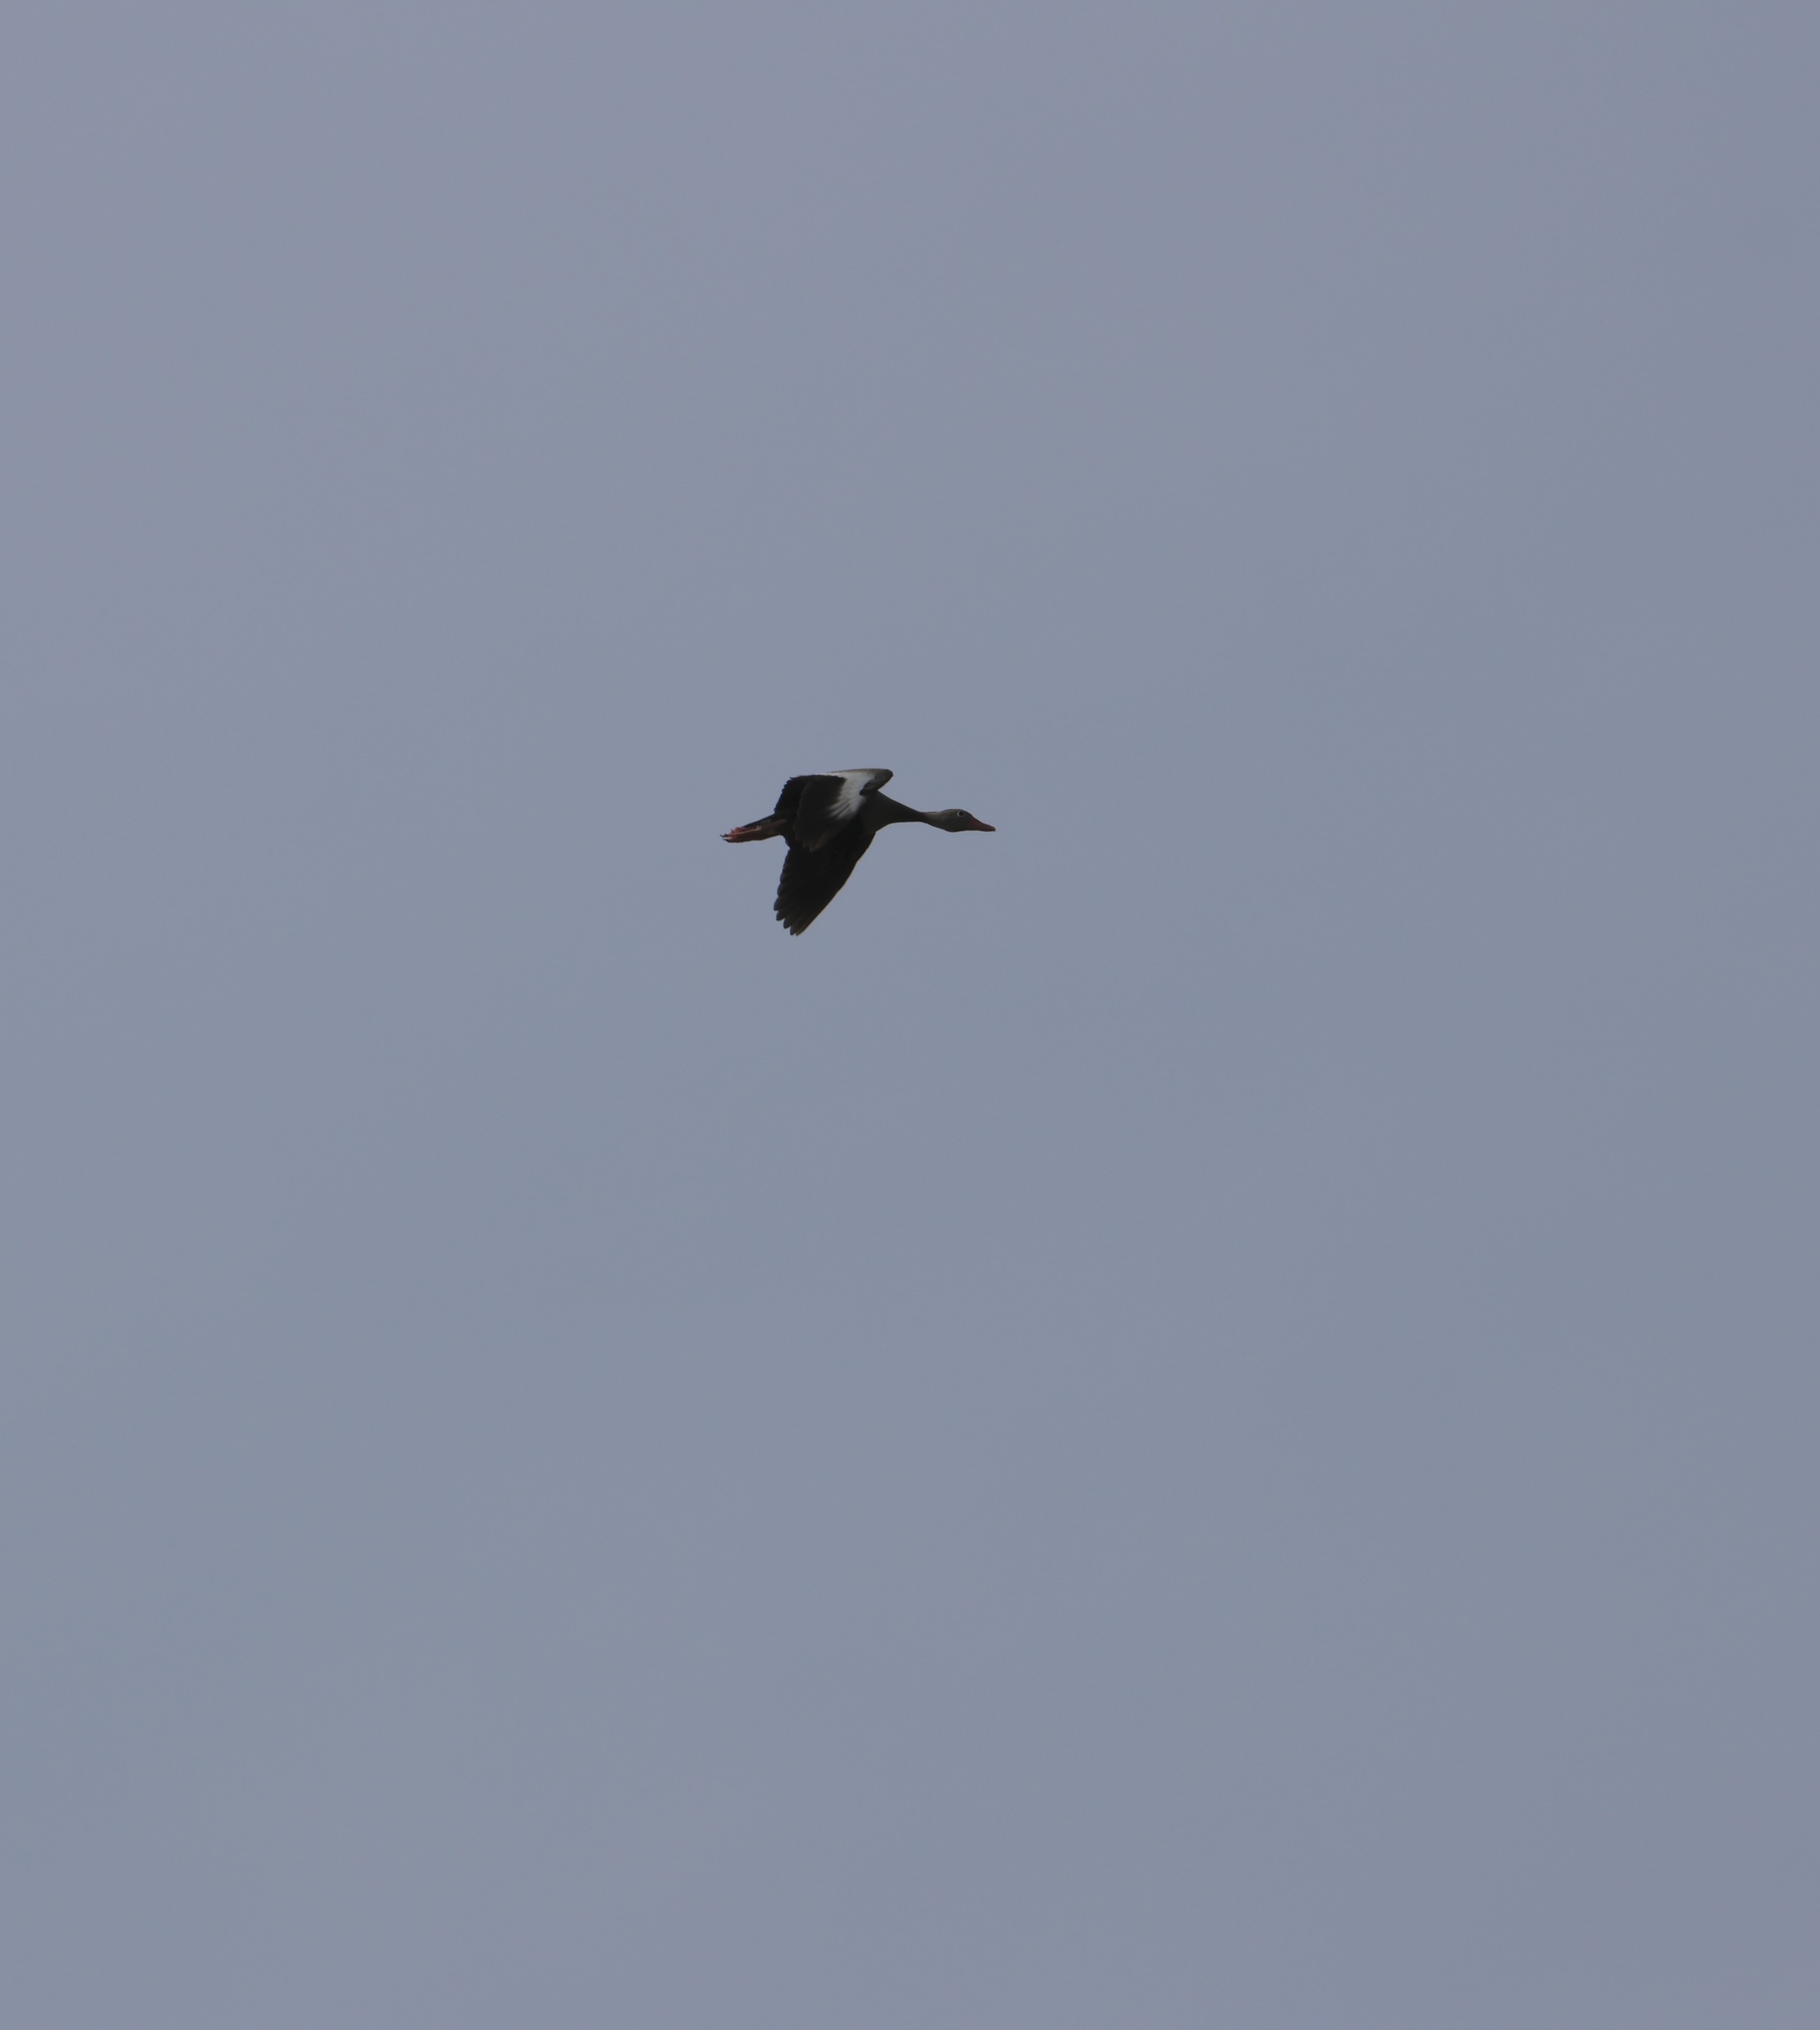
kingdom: Animalia
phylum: Chordata
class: Aves
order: Anseriformes
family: Anatidae
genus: Dendrocygna
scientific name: Dendrocygna autumnalis
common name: Black-bellied whistling duck
